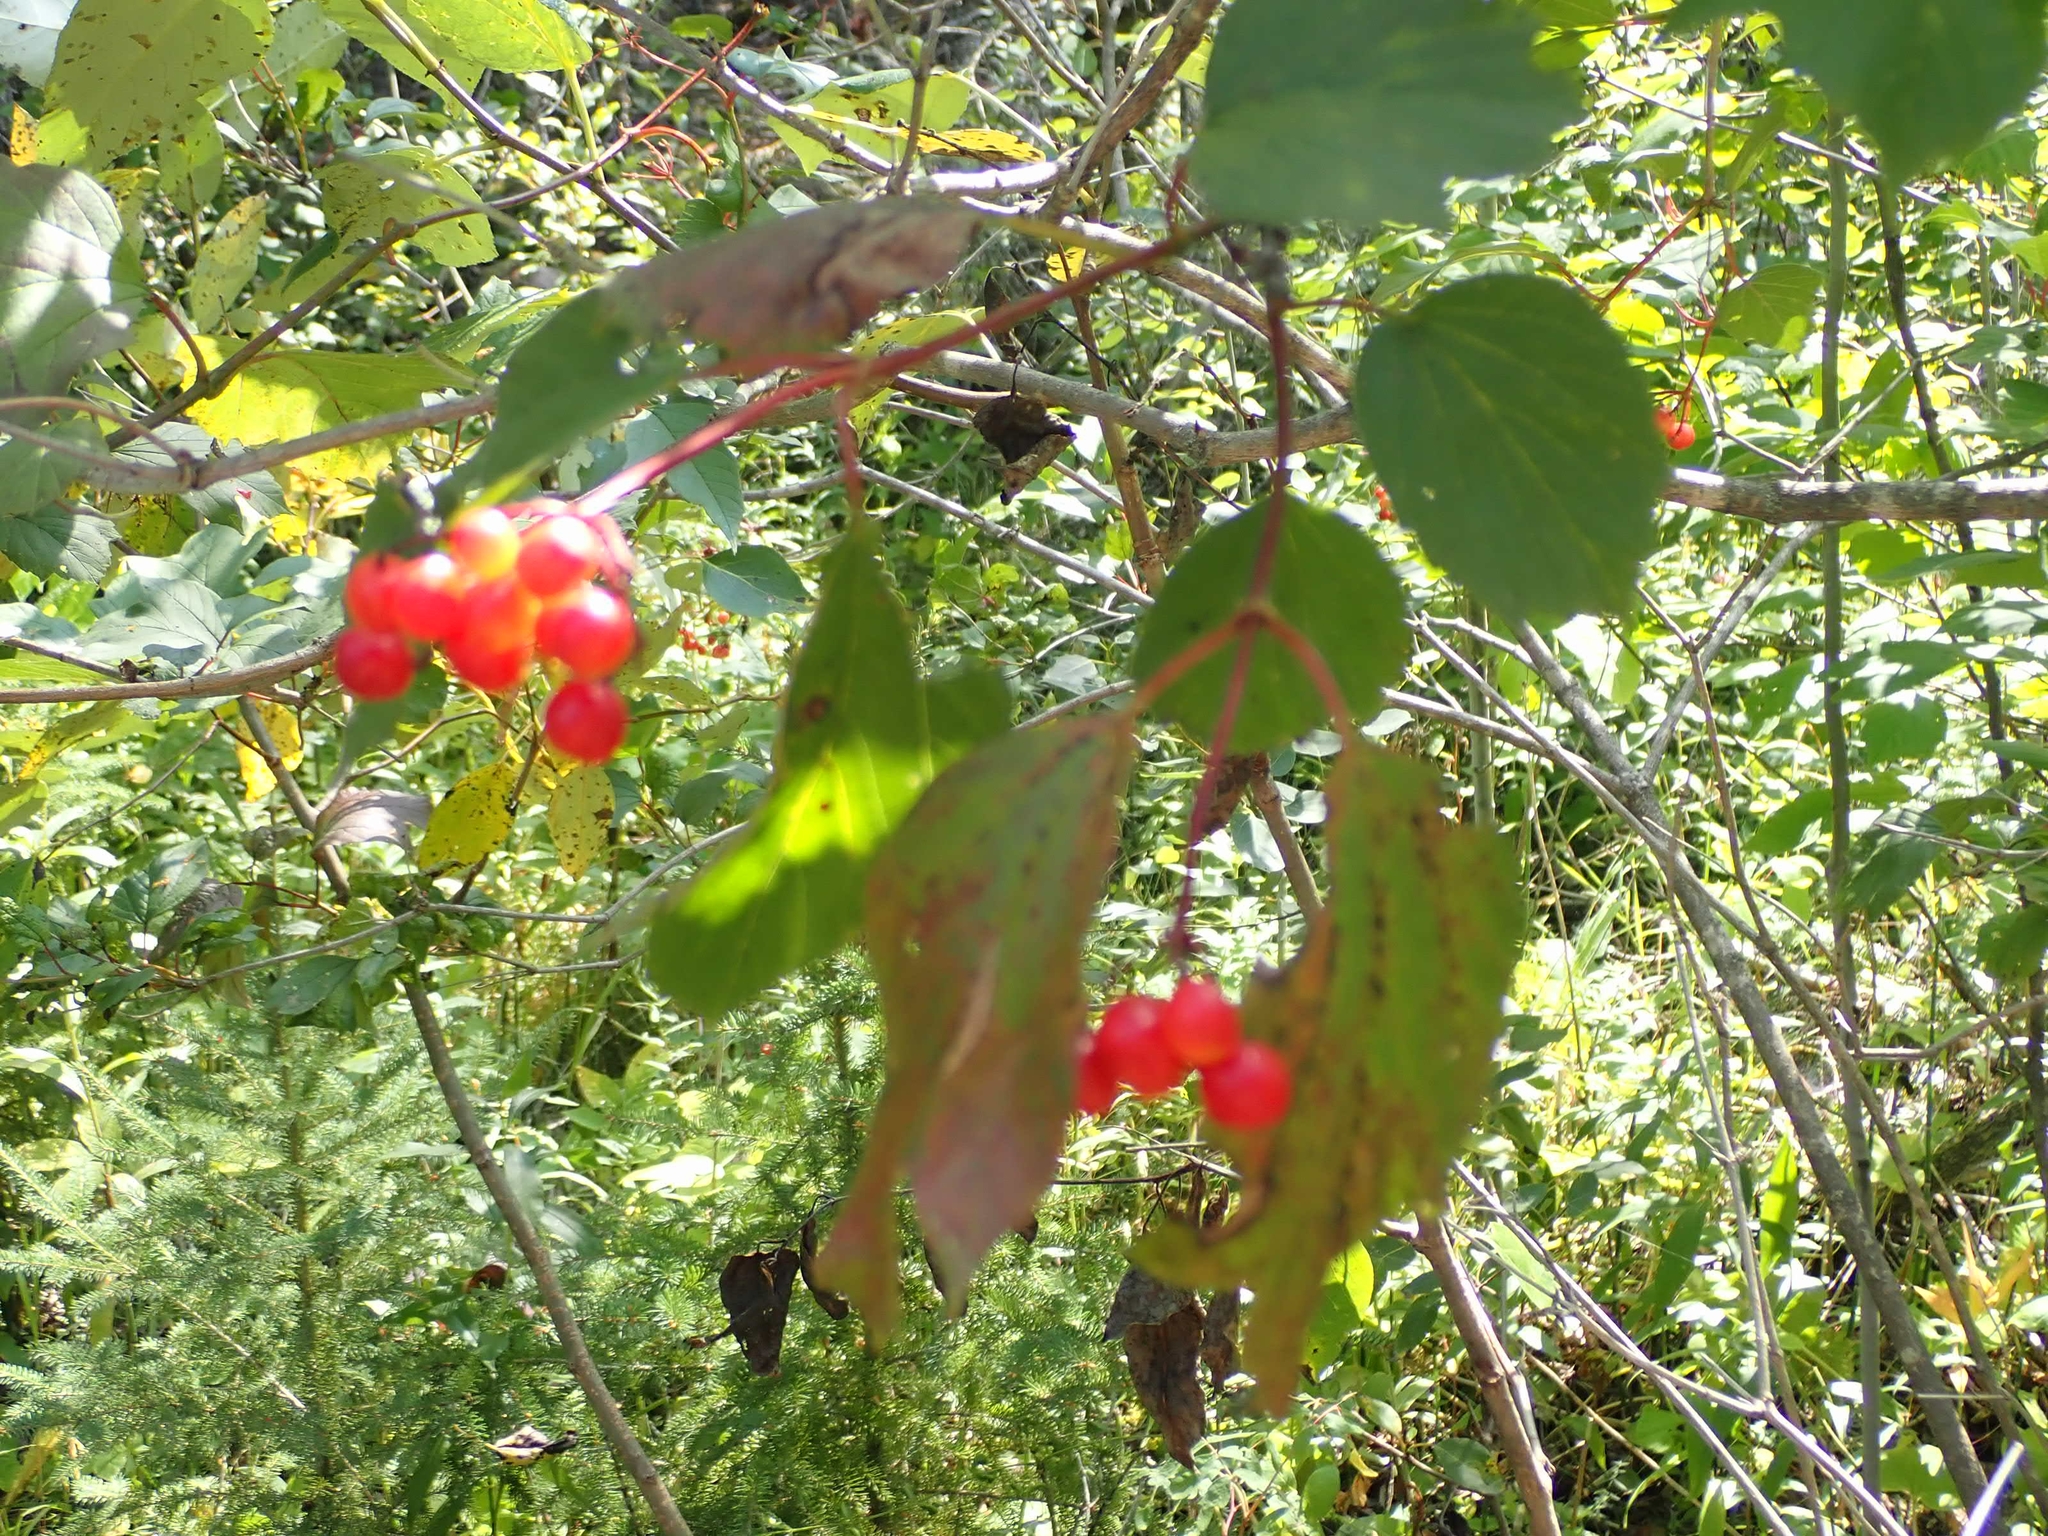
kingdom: Plantae
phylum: Tracheophyta
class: Magnoliopsida
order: Dipsacales
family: Viburnaceae
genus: Viburnum
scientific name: Viburnum opulus
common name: Guelder-rose
